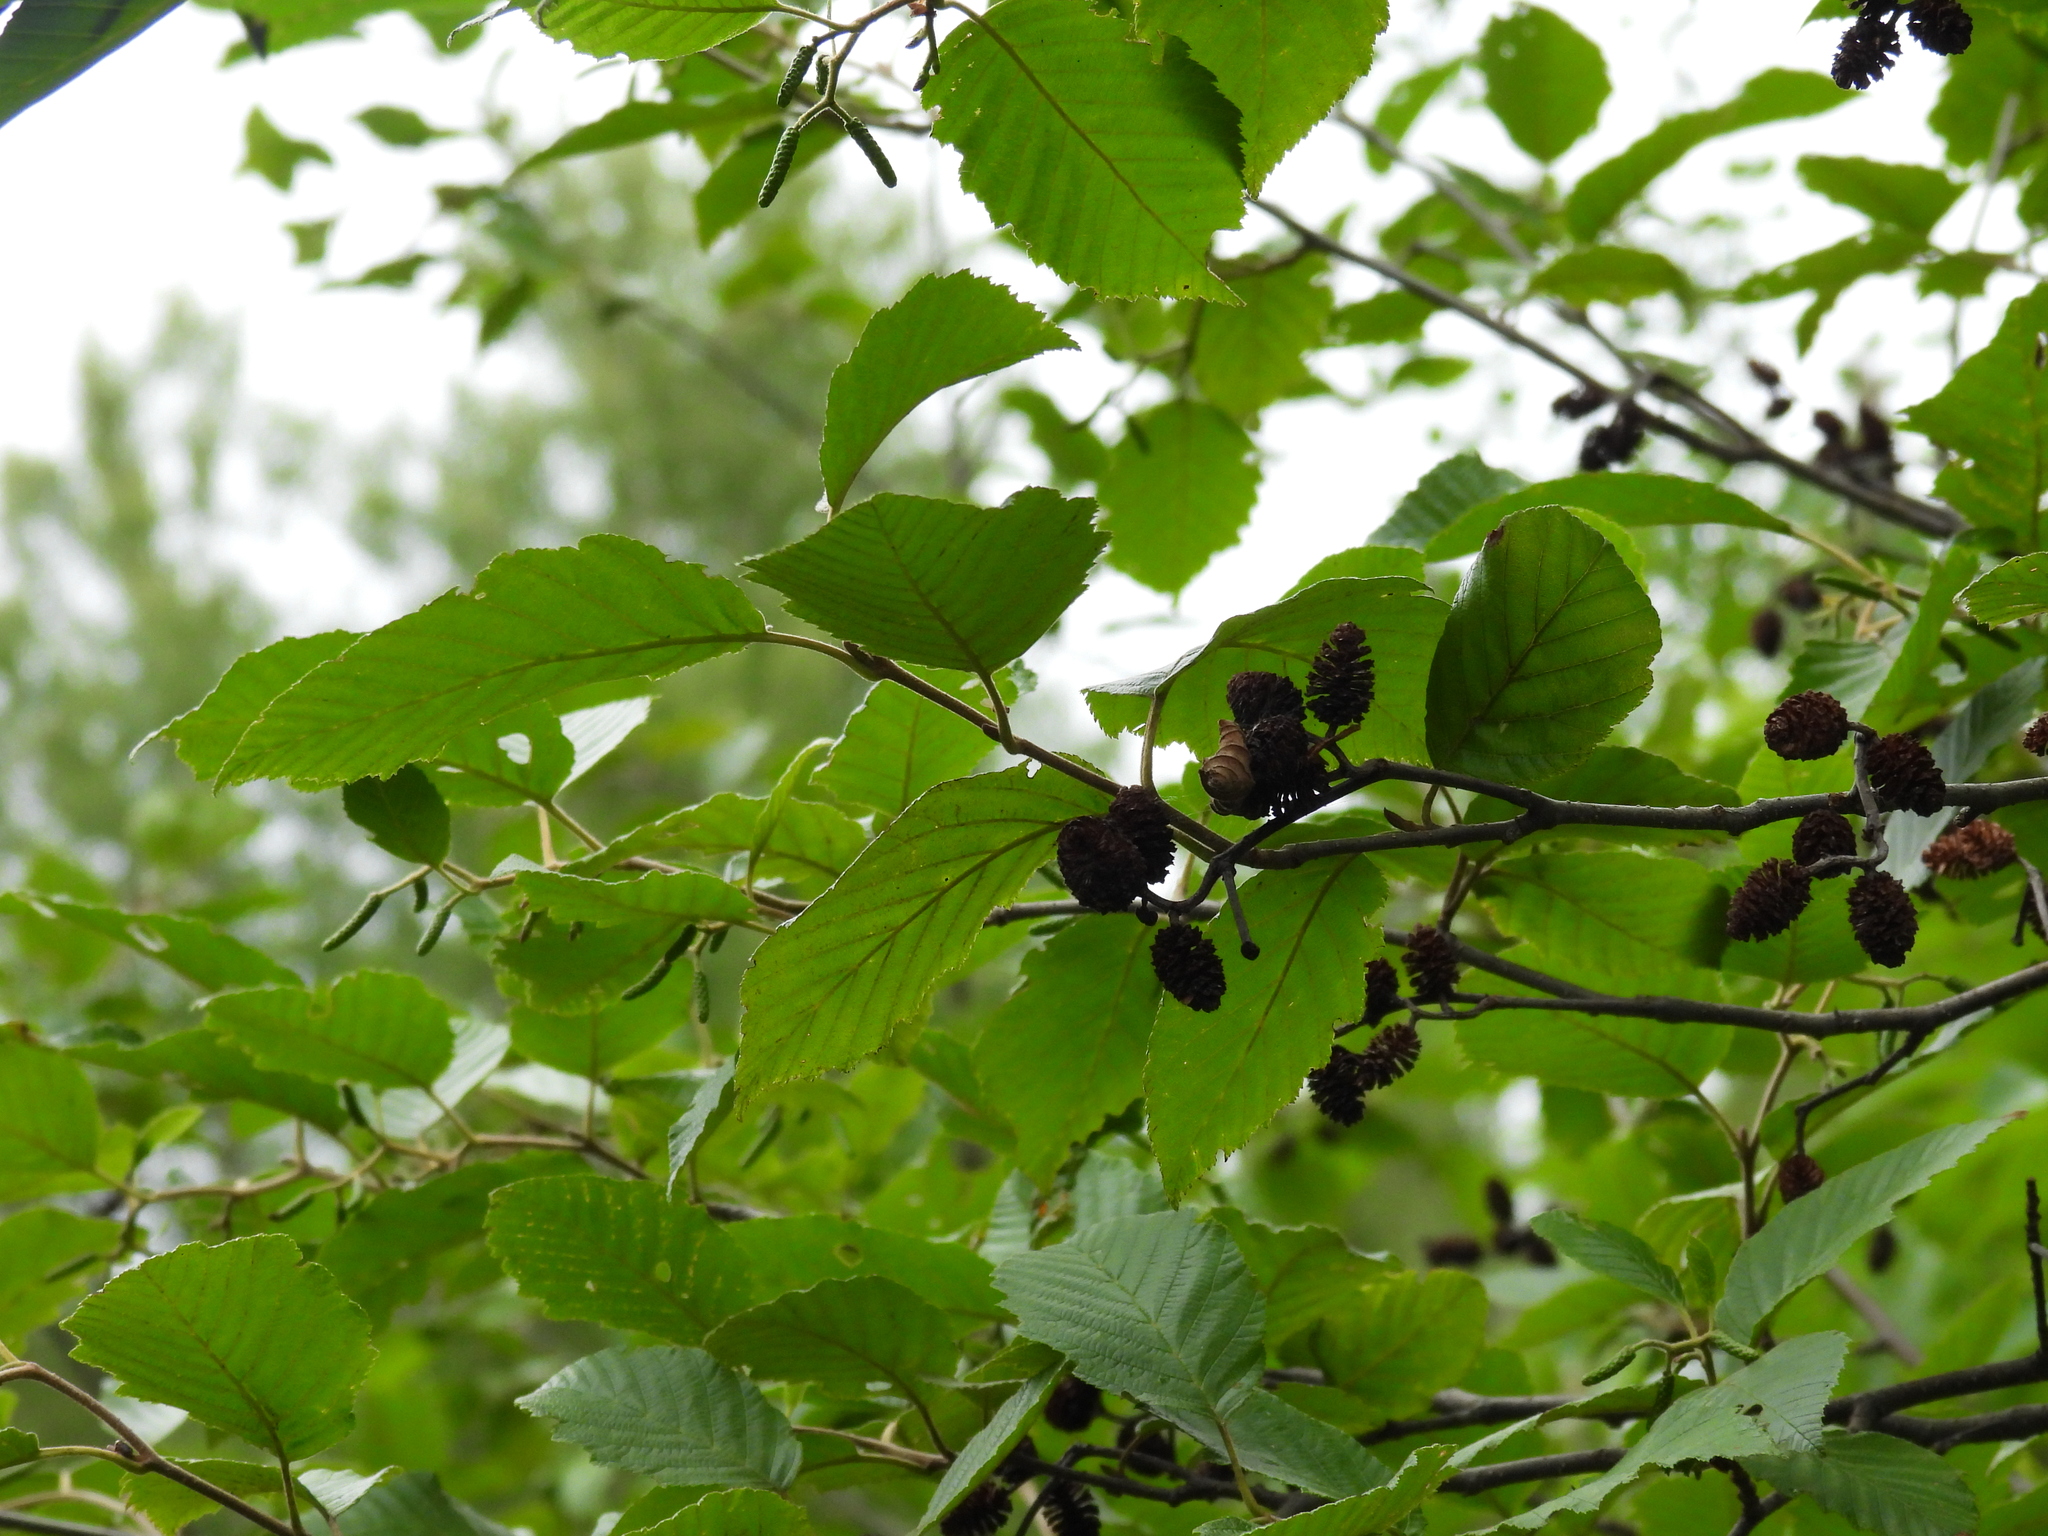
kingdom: Plantae
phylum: Tracheophyta
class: Magnoliopsida
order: Fagales
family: Betulaceae
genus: Alnus
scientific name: Alnus incana
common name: Grey alder
